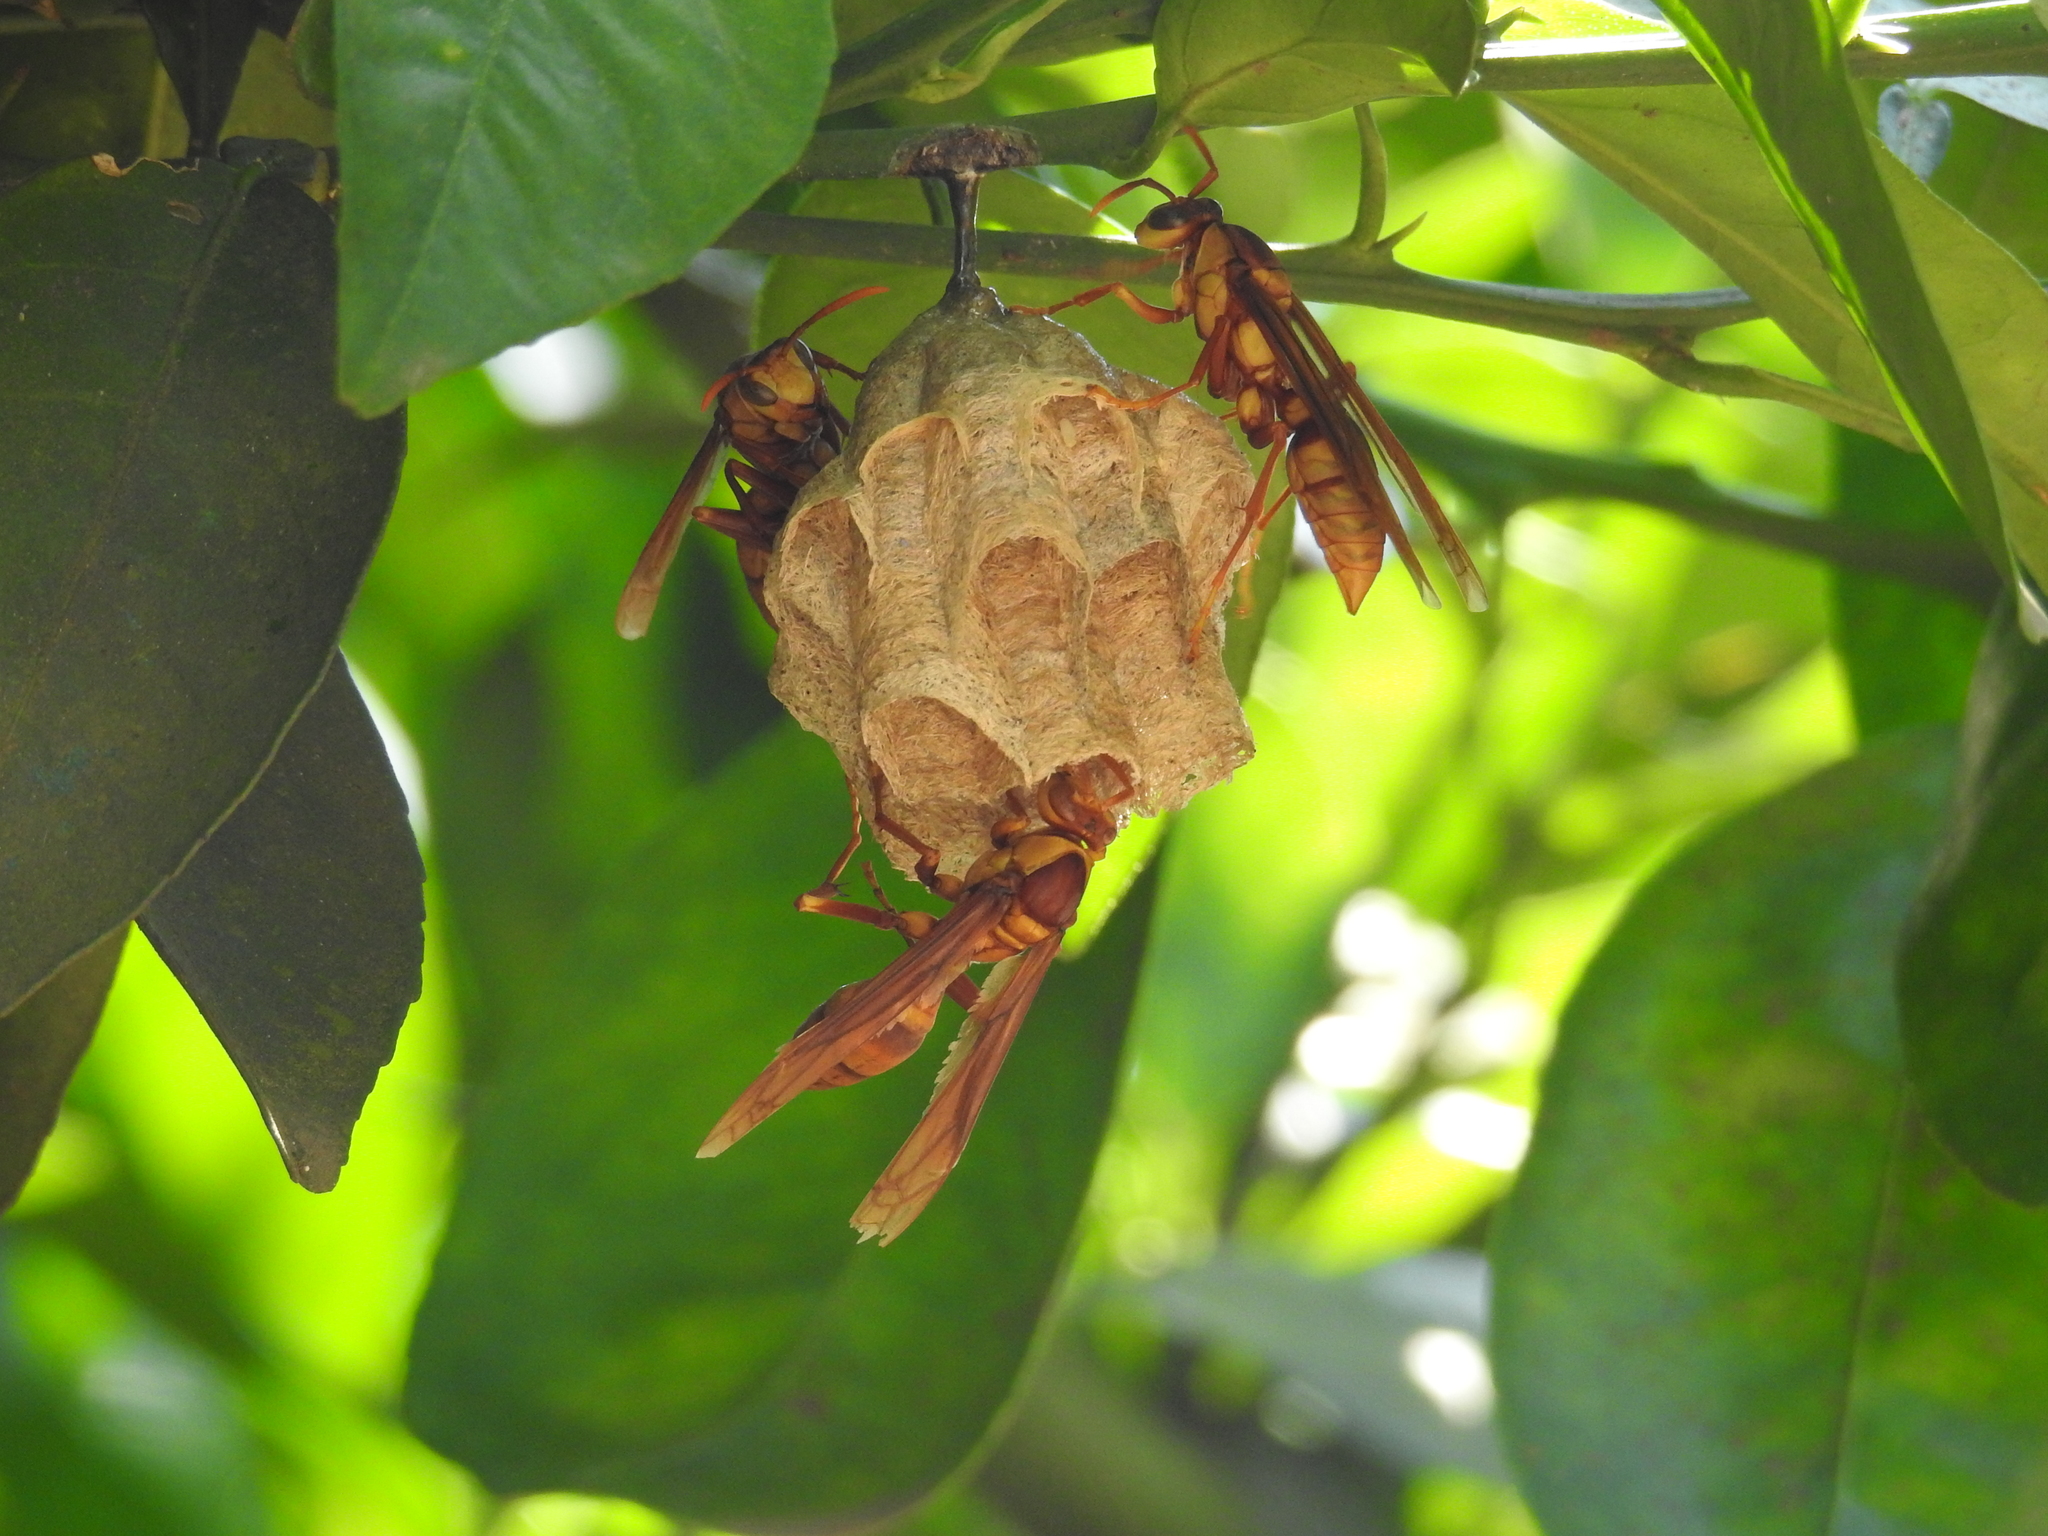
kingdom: Animalia
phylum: Arthropoda
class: Insecta
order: Hymenoptera
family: Eumenidae
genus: Polistes
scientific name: Polistes carnifex
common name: Paper wasp
